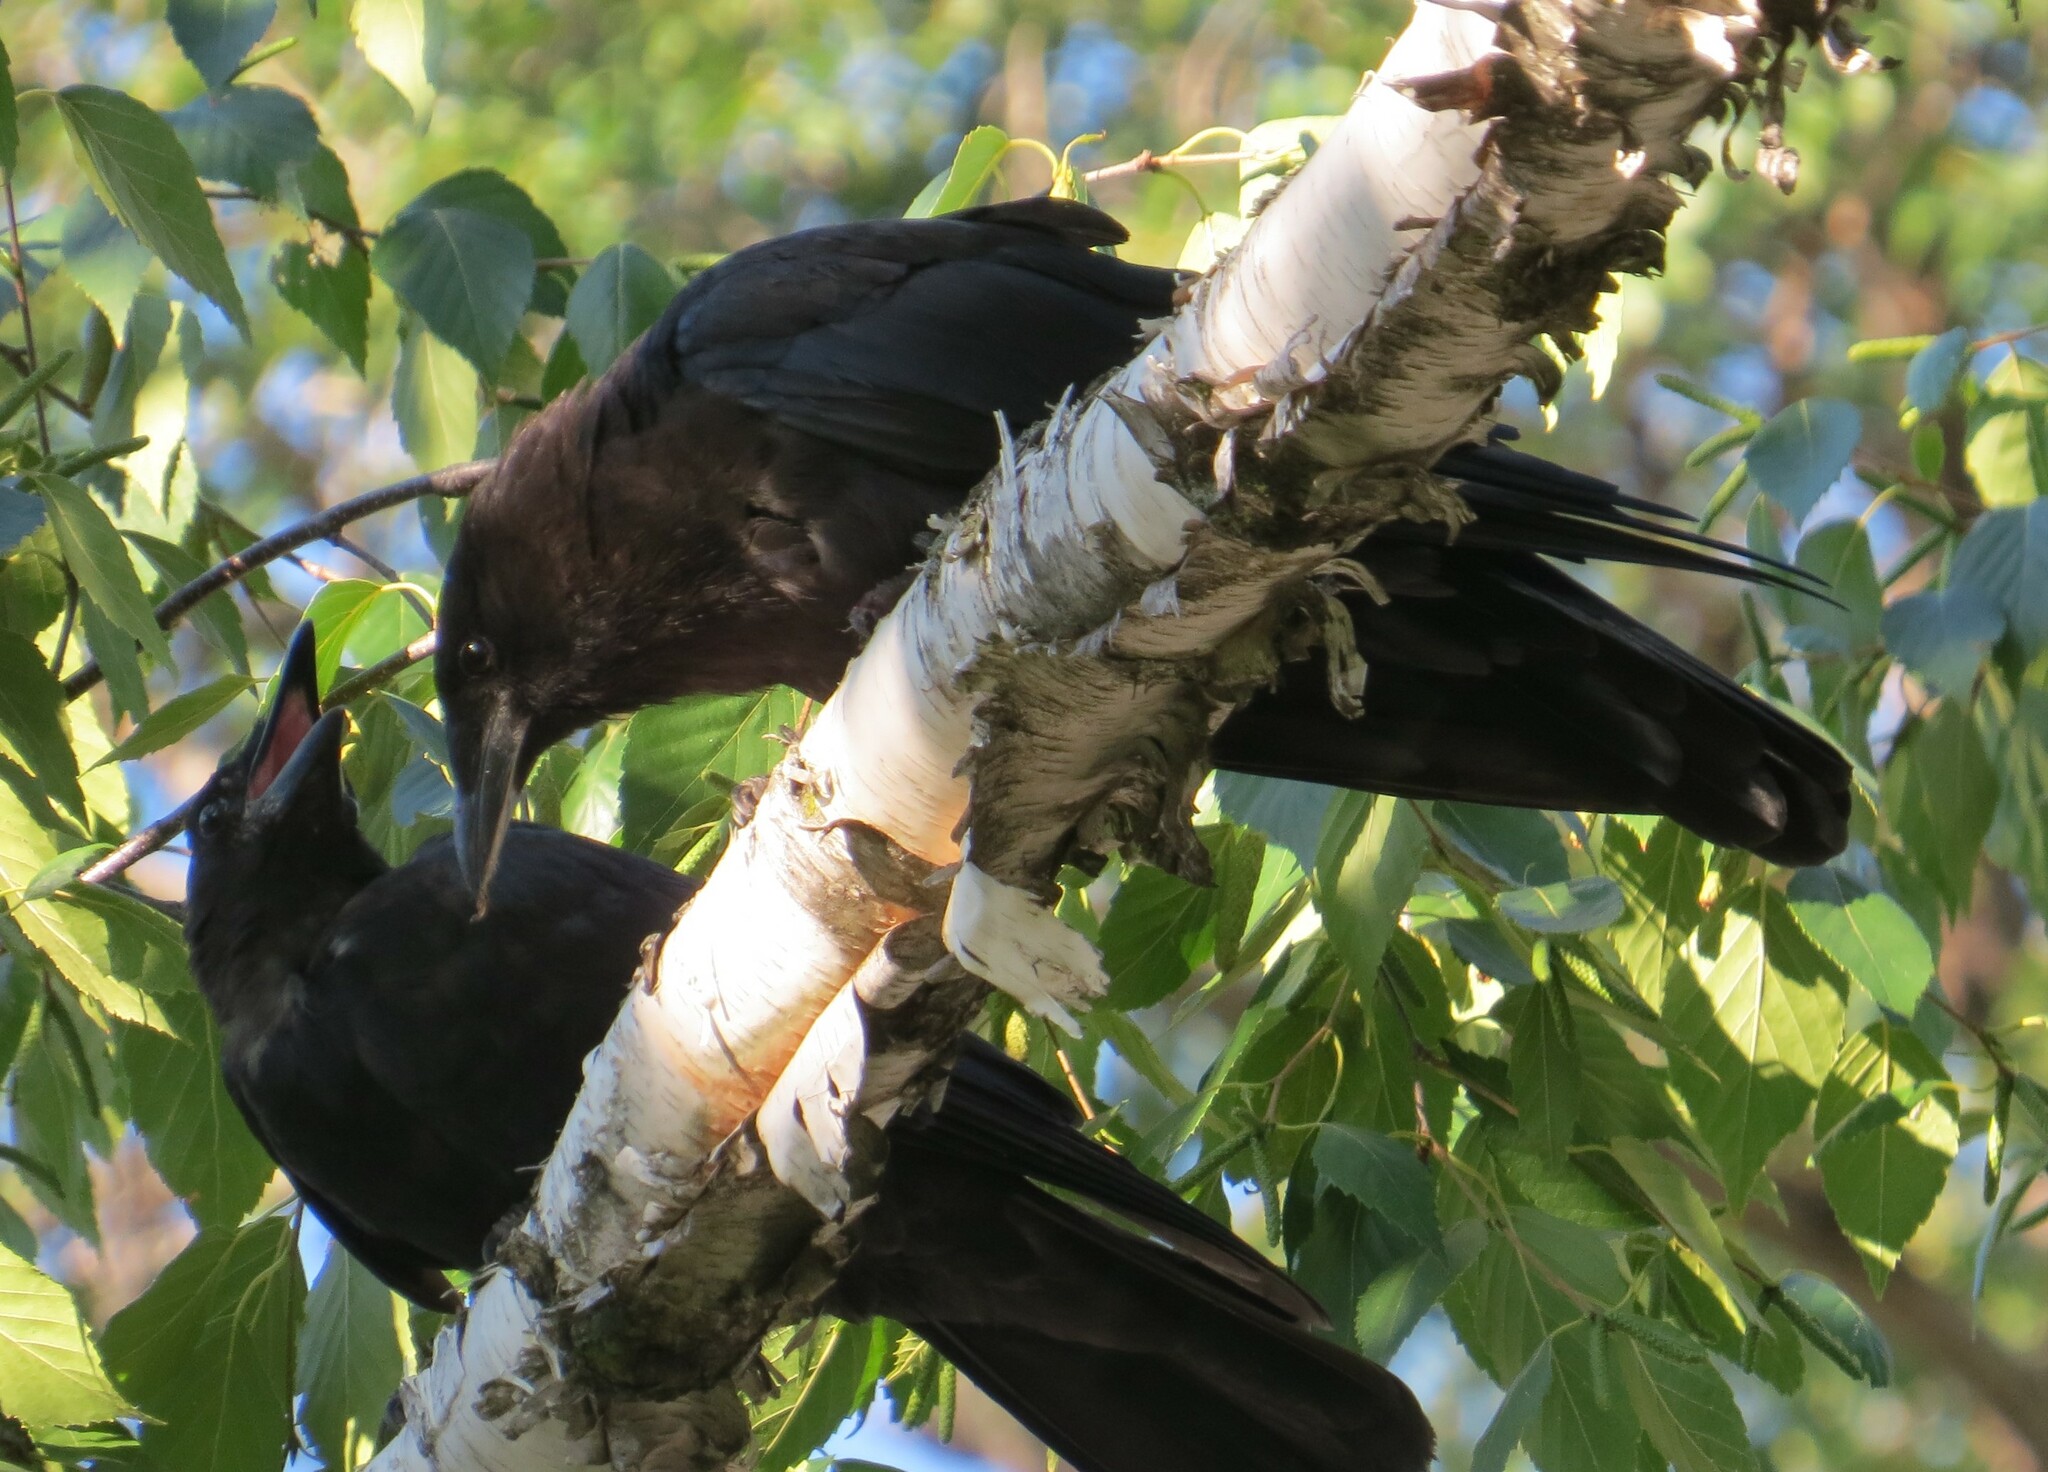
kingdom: Animalia
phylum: Chordata
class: Aves
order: Passeriformes
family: Corvidae
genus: Corvus
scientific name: Corvus brachyrhynchos
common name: American crow
